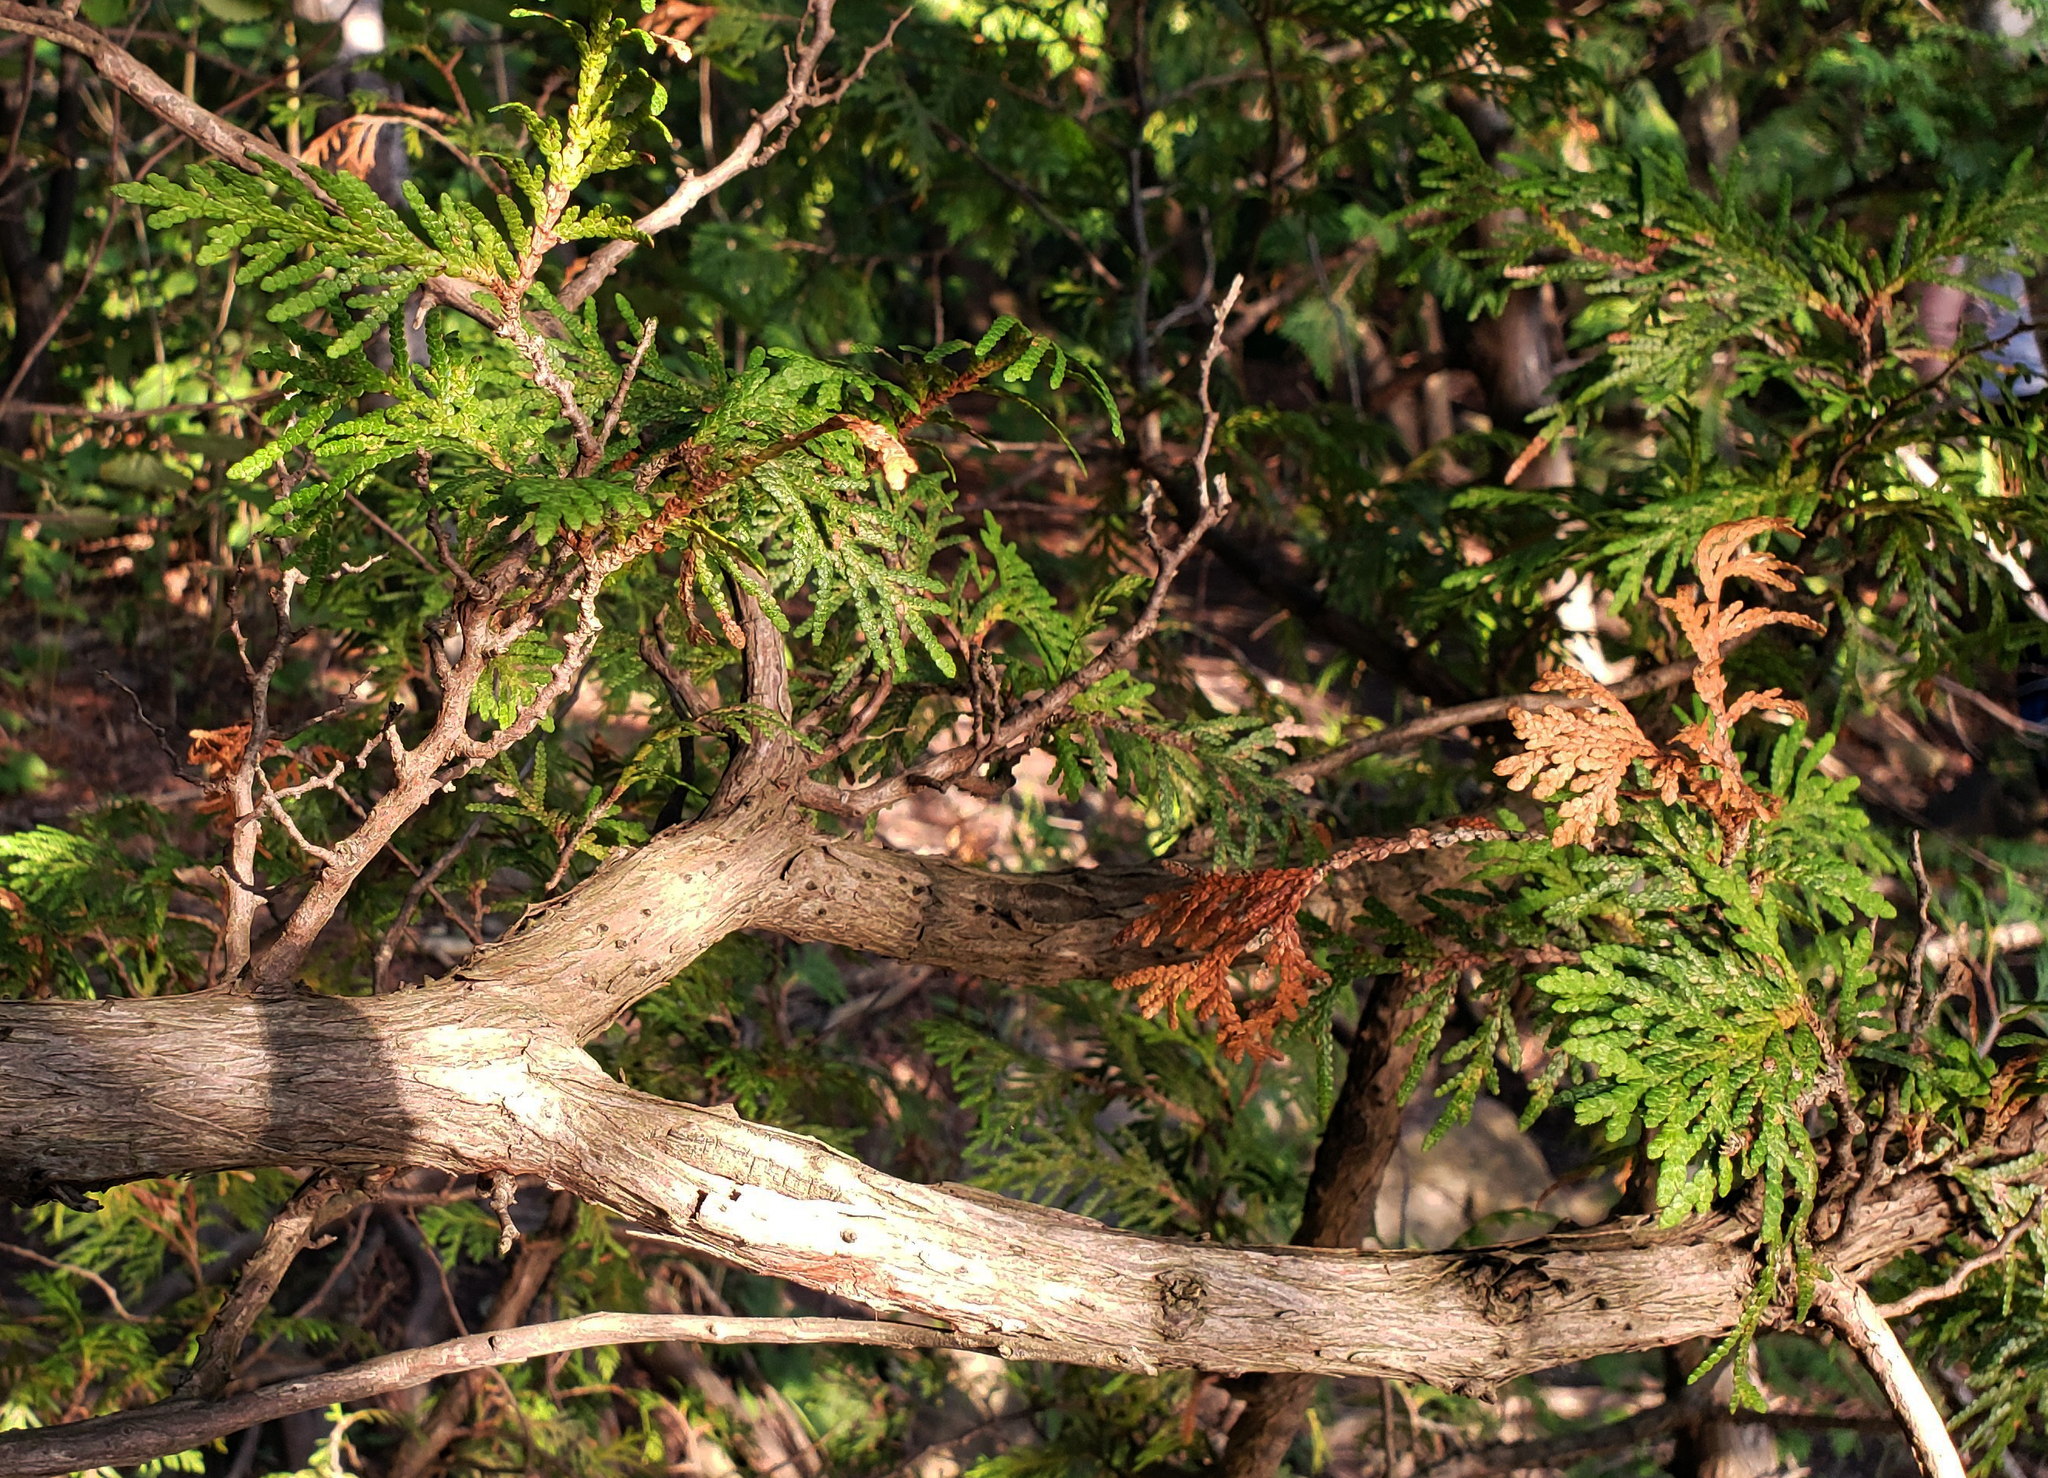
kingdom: Plantae
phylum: Tracheophyta
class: Pinopsida
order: Pinales
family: Cupressaceae
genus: Thuja
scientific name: Thuja occidentalis
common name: Northern white-cedar
